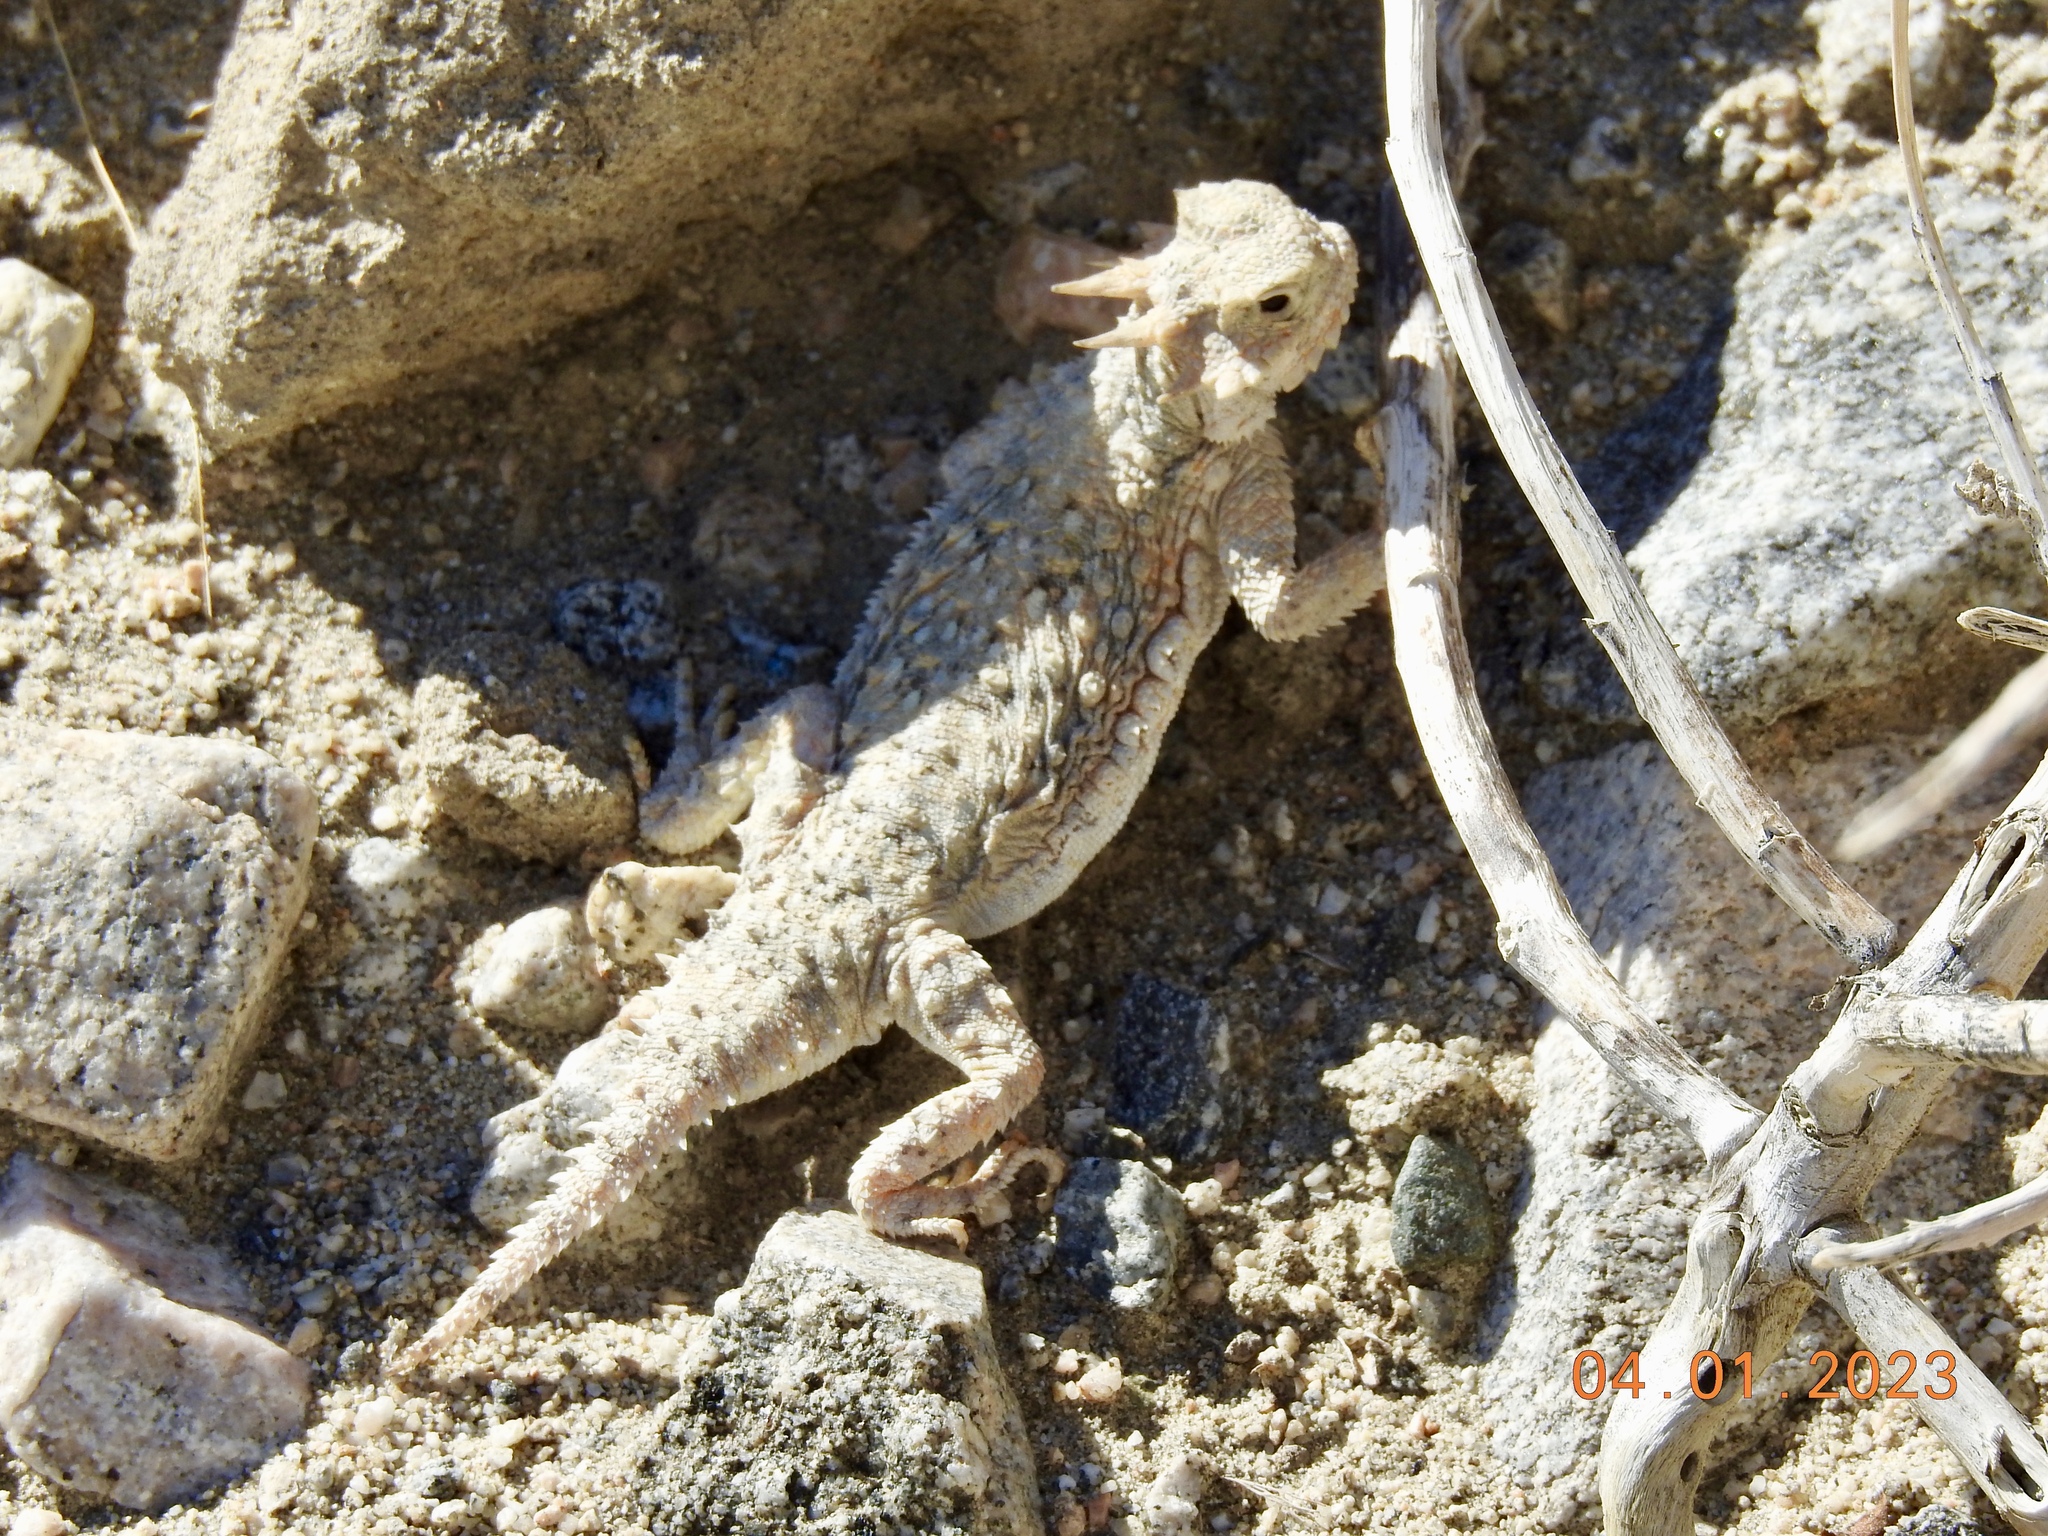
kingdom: Animalia
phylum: Chordata
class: Squamata
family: Phrynosomatidae
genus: Phrynosoma
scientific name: Phrynosoma platyrhinos
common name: Desert horned lizard
